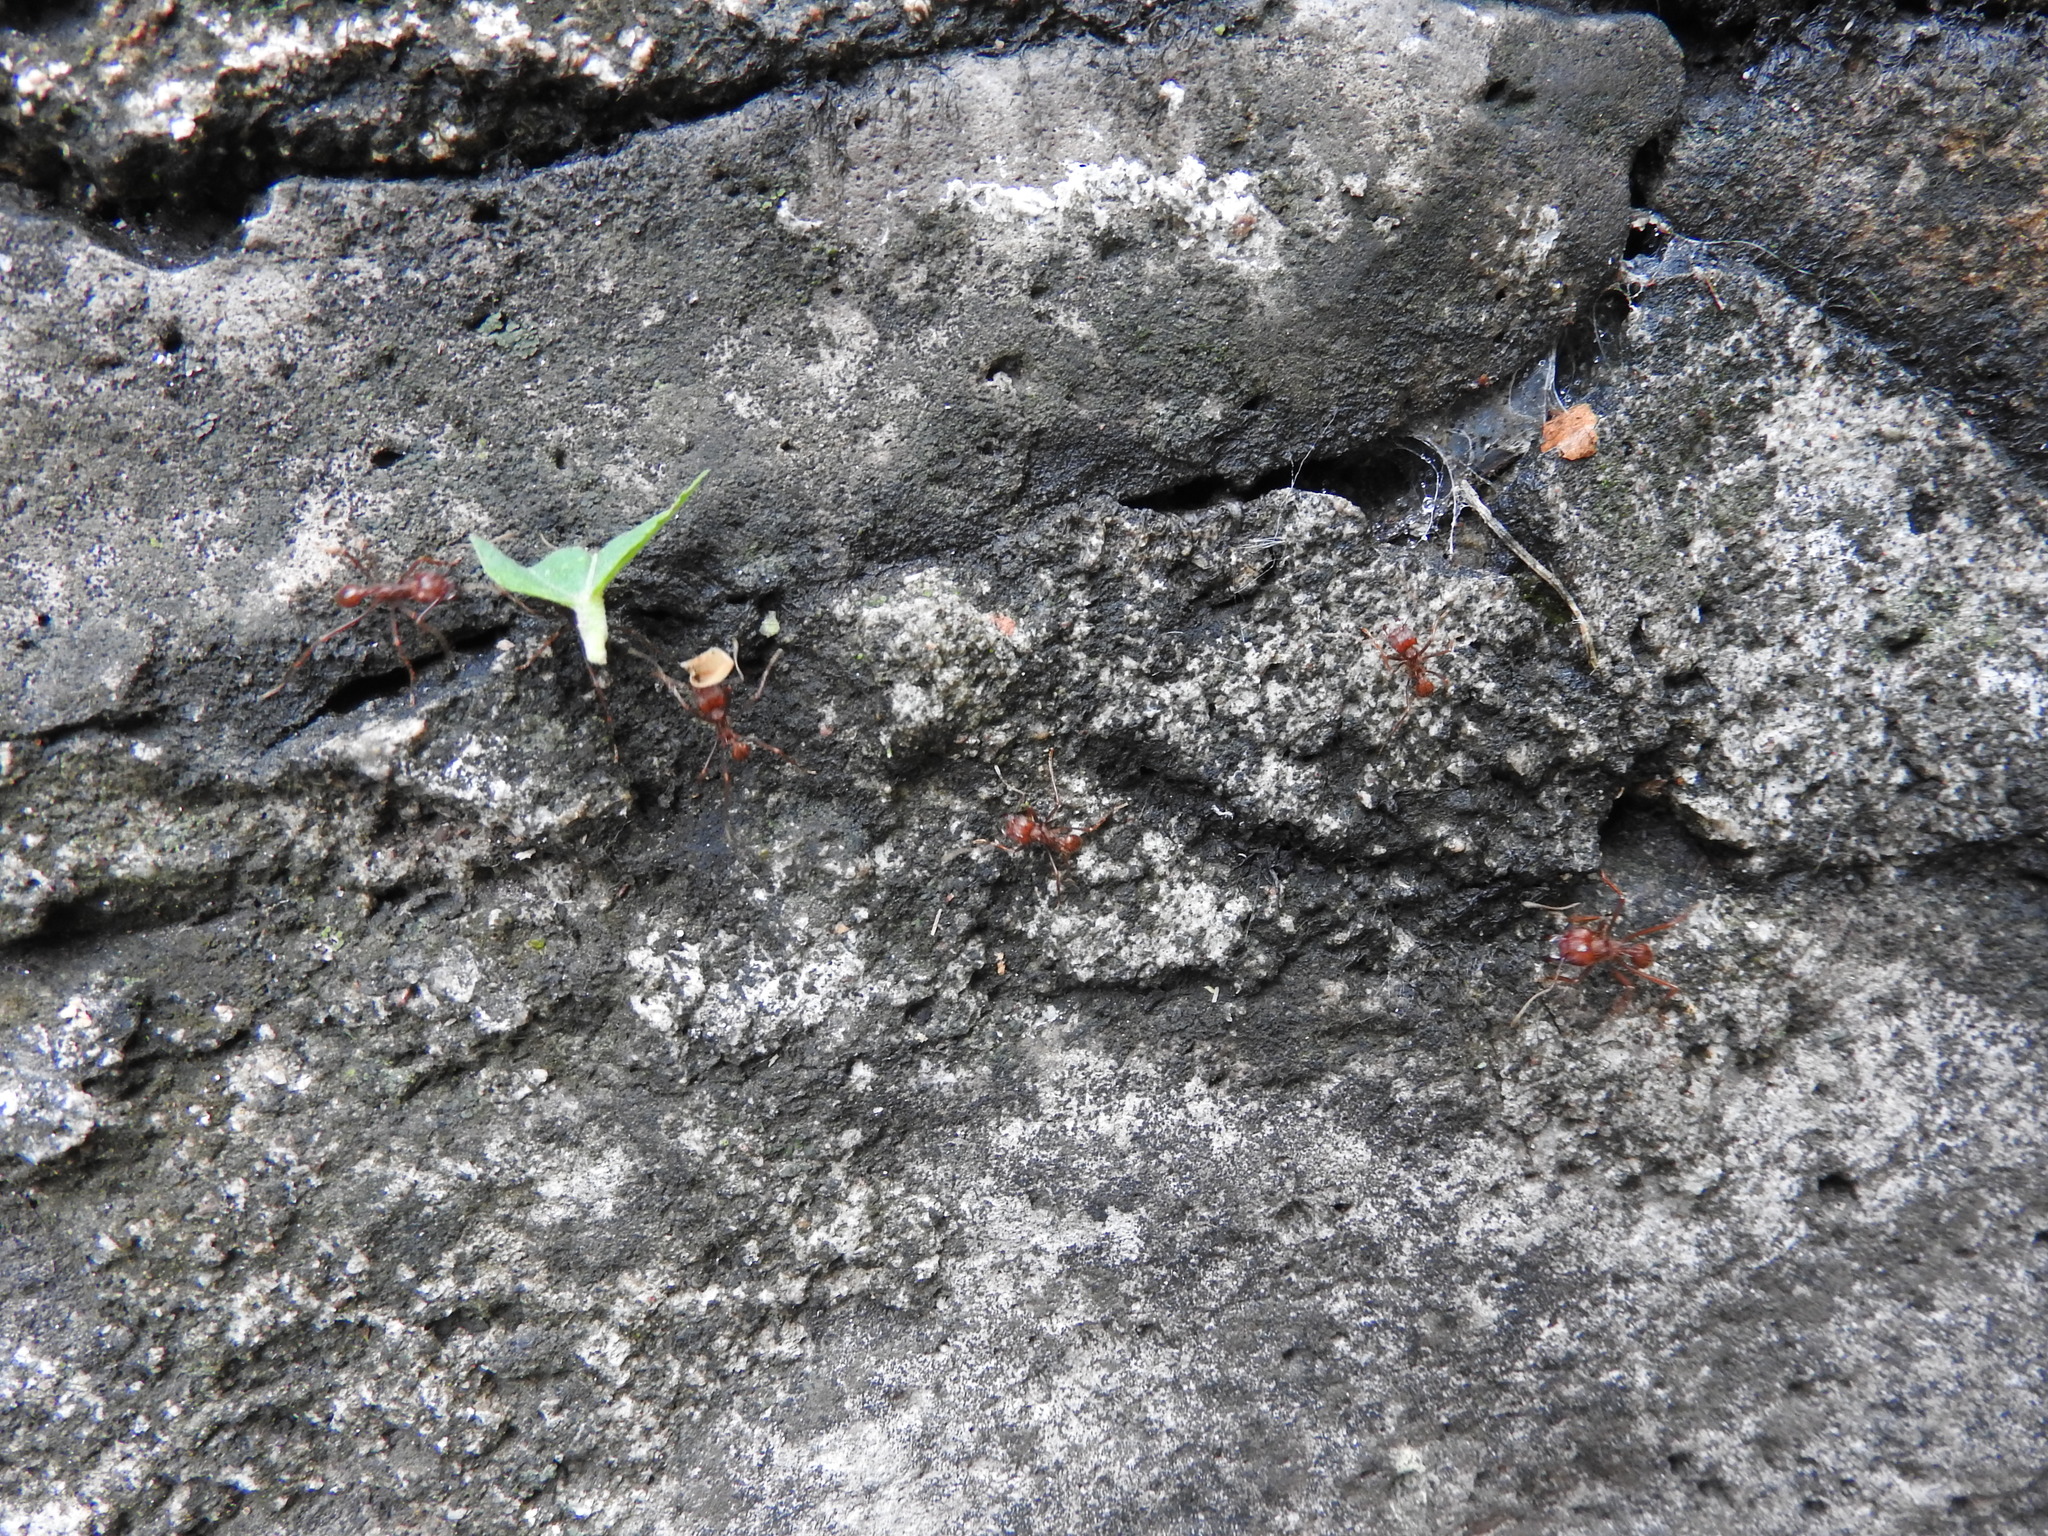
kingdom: Animalia
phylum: Arthropoda
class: Insecta
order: Hymenoptera
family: Formicidae
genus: Atta
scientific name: Atta mexicana
